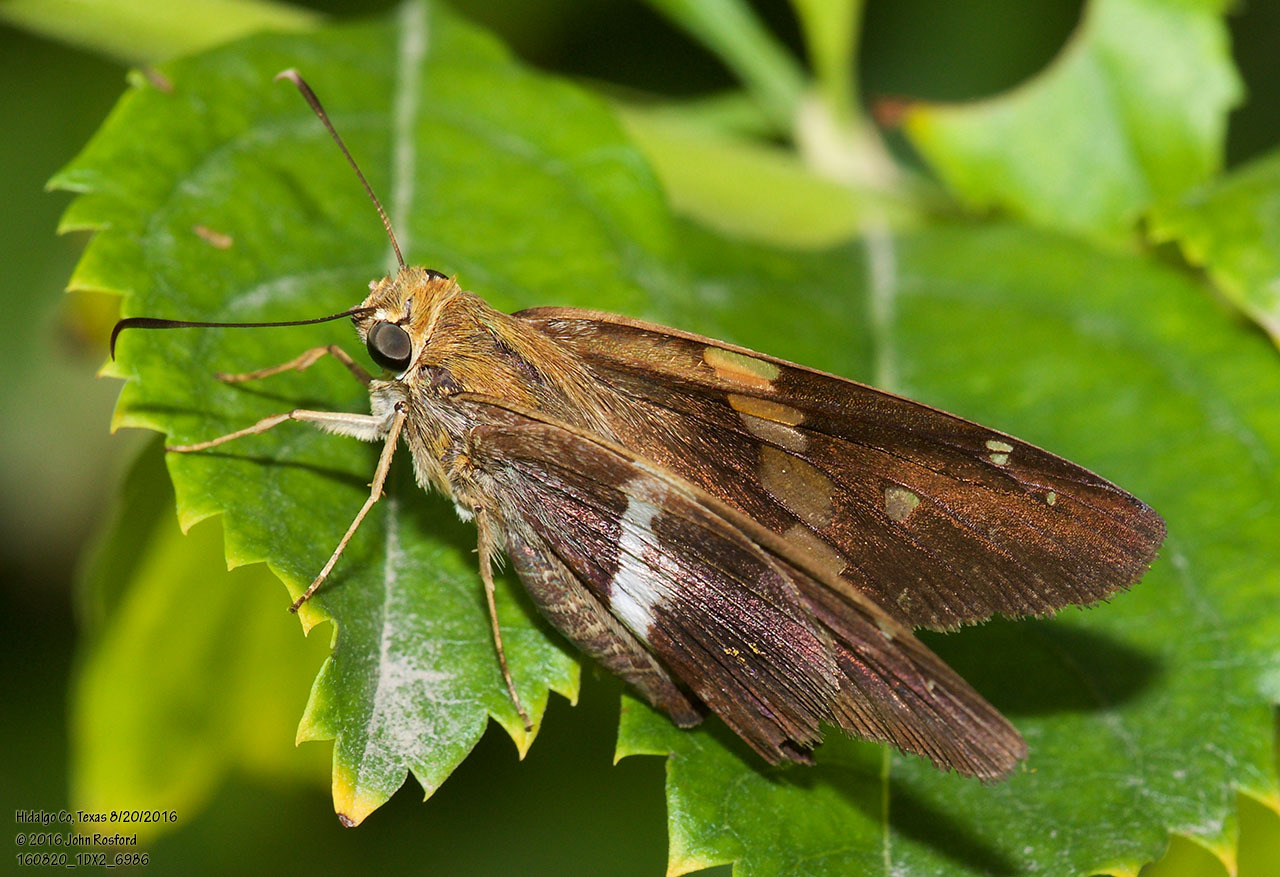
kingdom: Animalia
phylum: Arthropoda
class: Insecta
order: Lepidoptera
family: Hesperiidae
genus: Aguna
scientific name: Aguna asander
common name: Gold-spotted aguna
